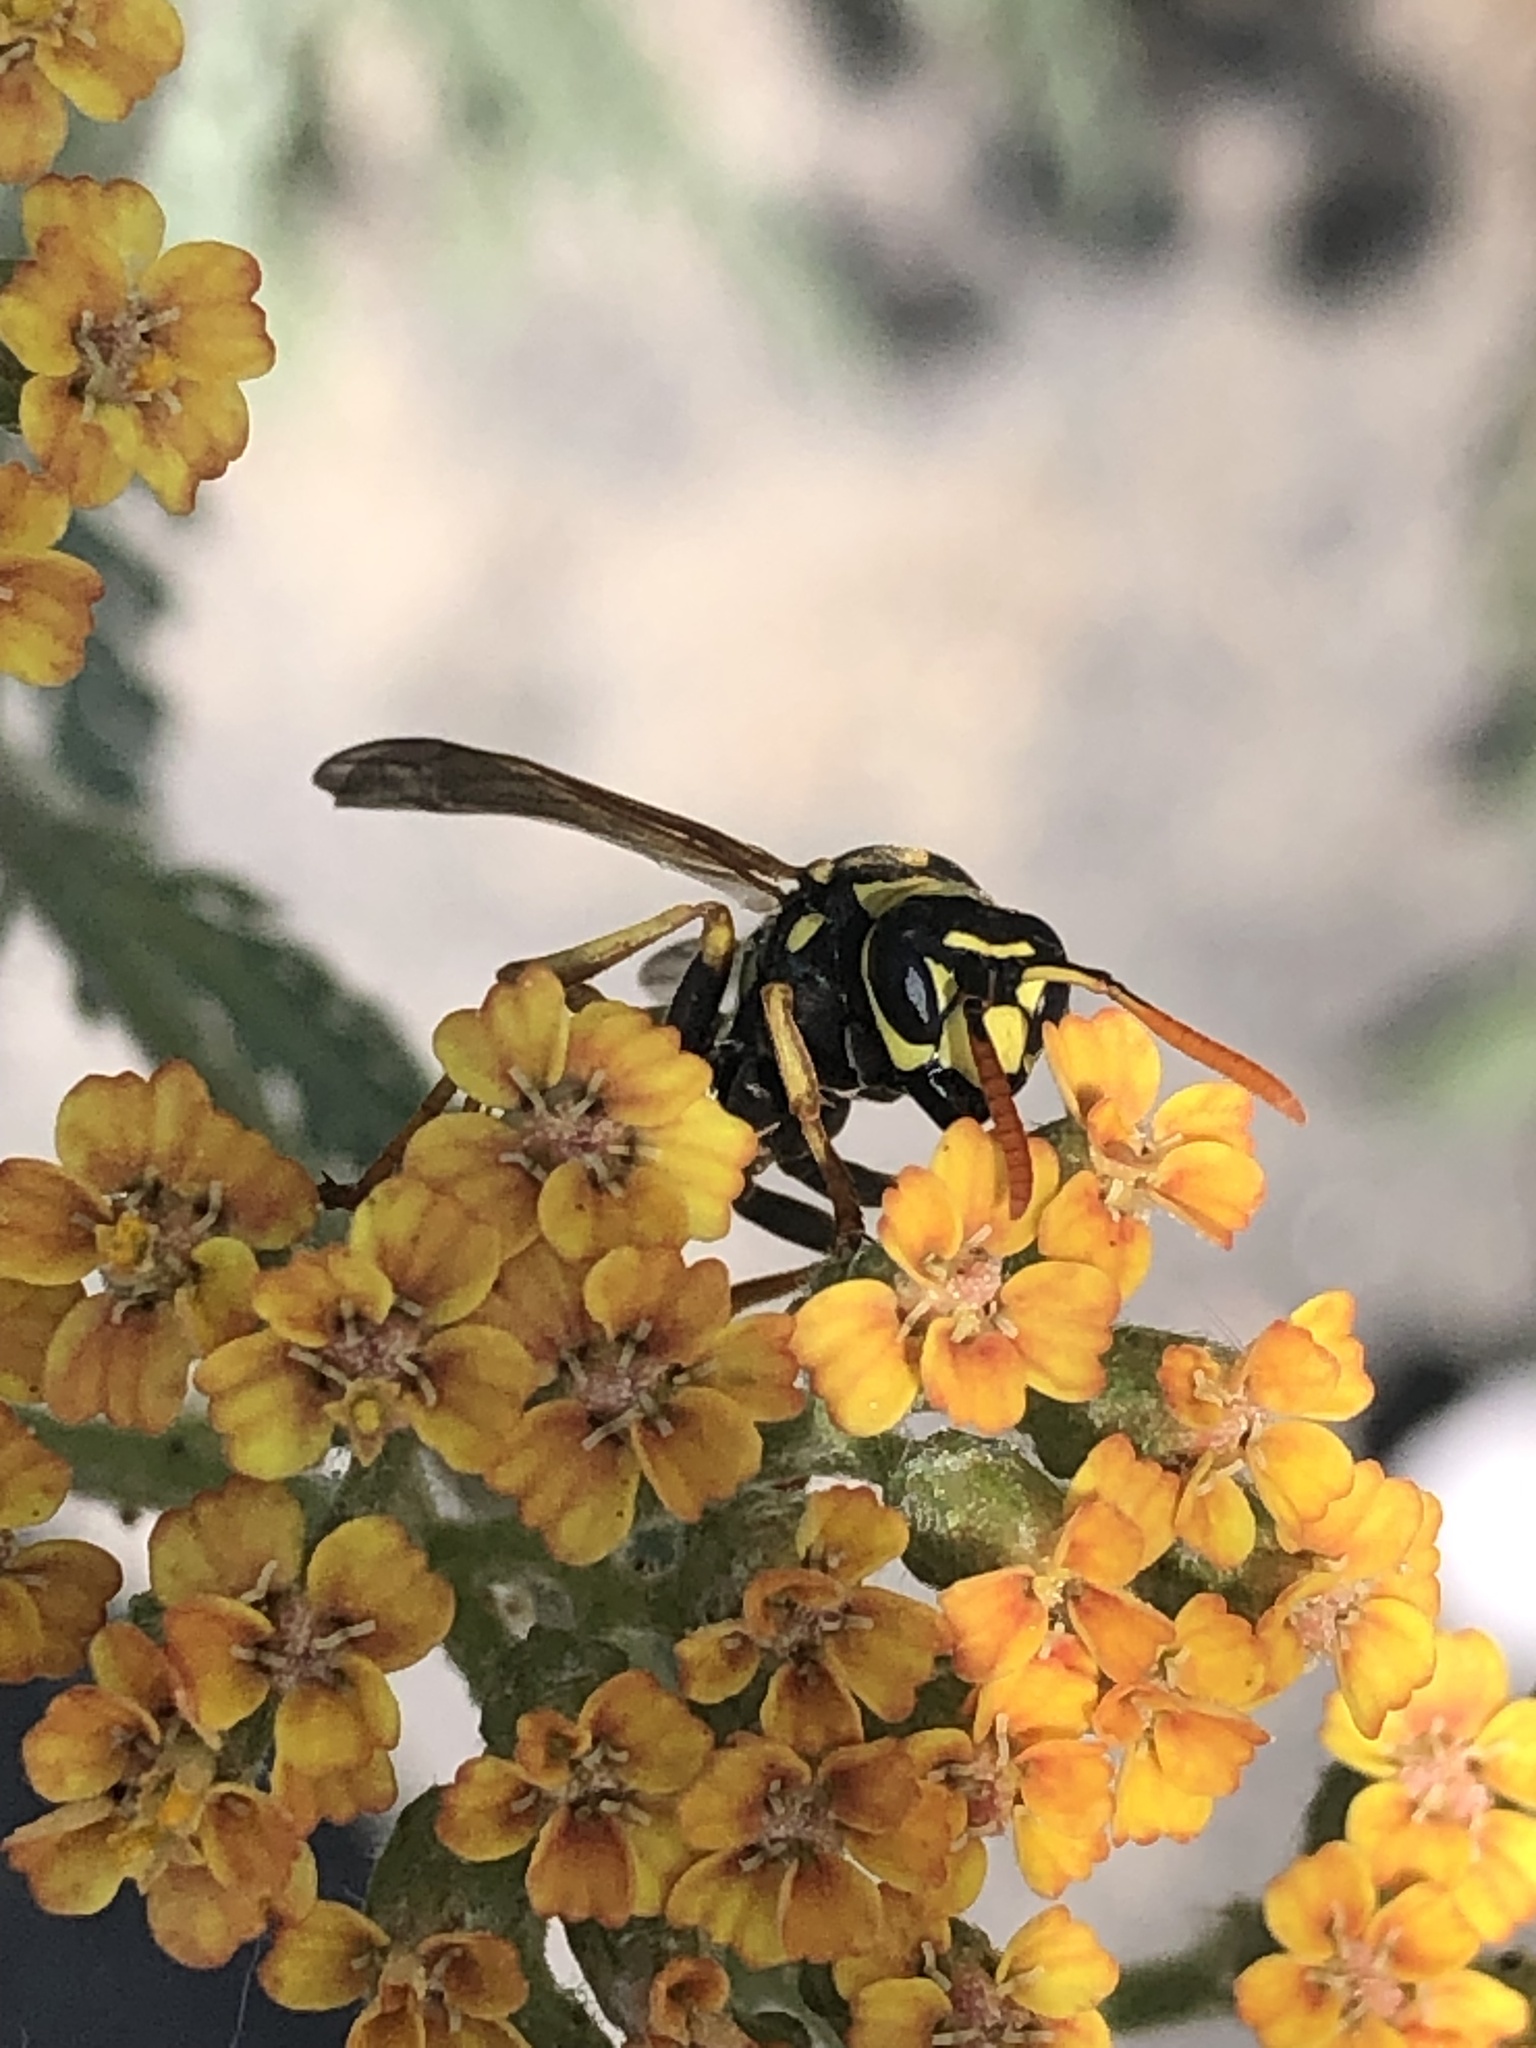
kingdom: Animalia
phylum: Arthropoda
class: Insecta
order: Hymenoptera
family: Eumenidae
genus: Polistes
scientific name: Polistes dominula
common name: Paper wasp
